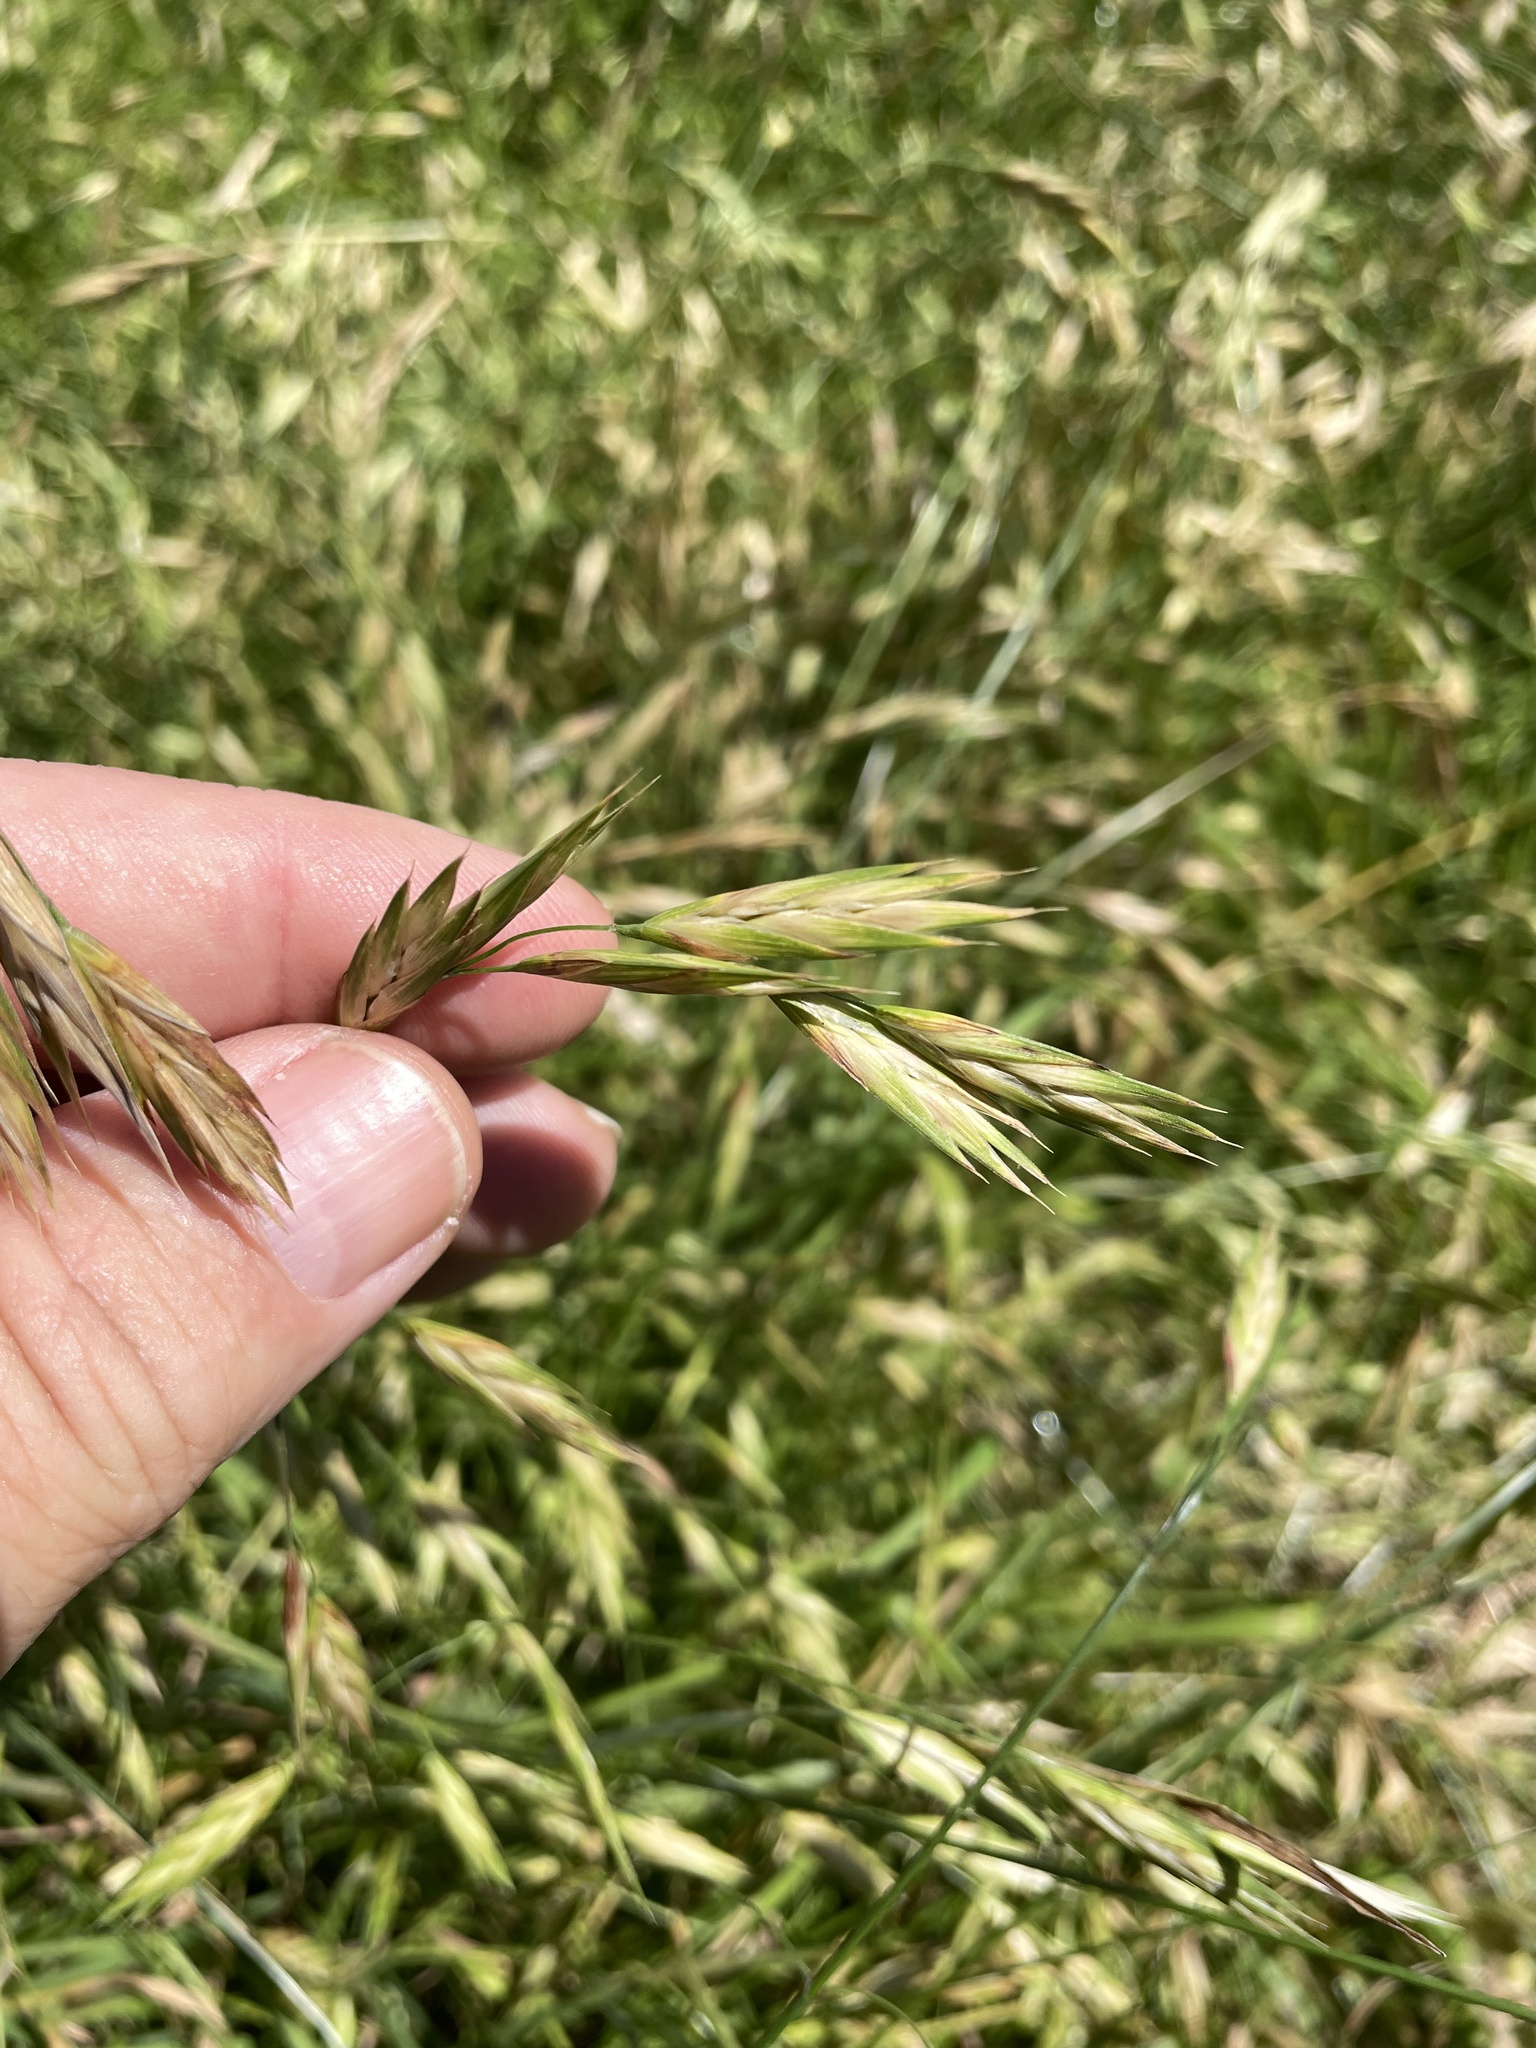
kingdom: Plantae
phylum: Tracheophyta
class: Liliopsida
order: Poales
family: Poaceae
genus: Bromus
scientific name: Bromus catharticus
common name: Rescuegrass
